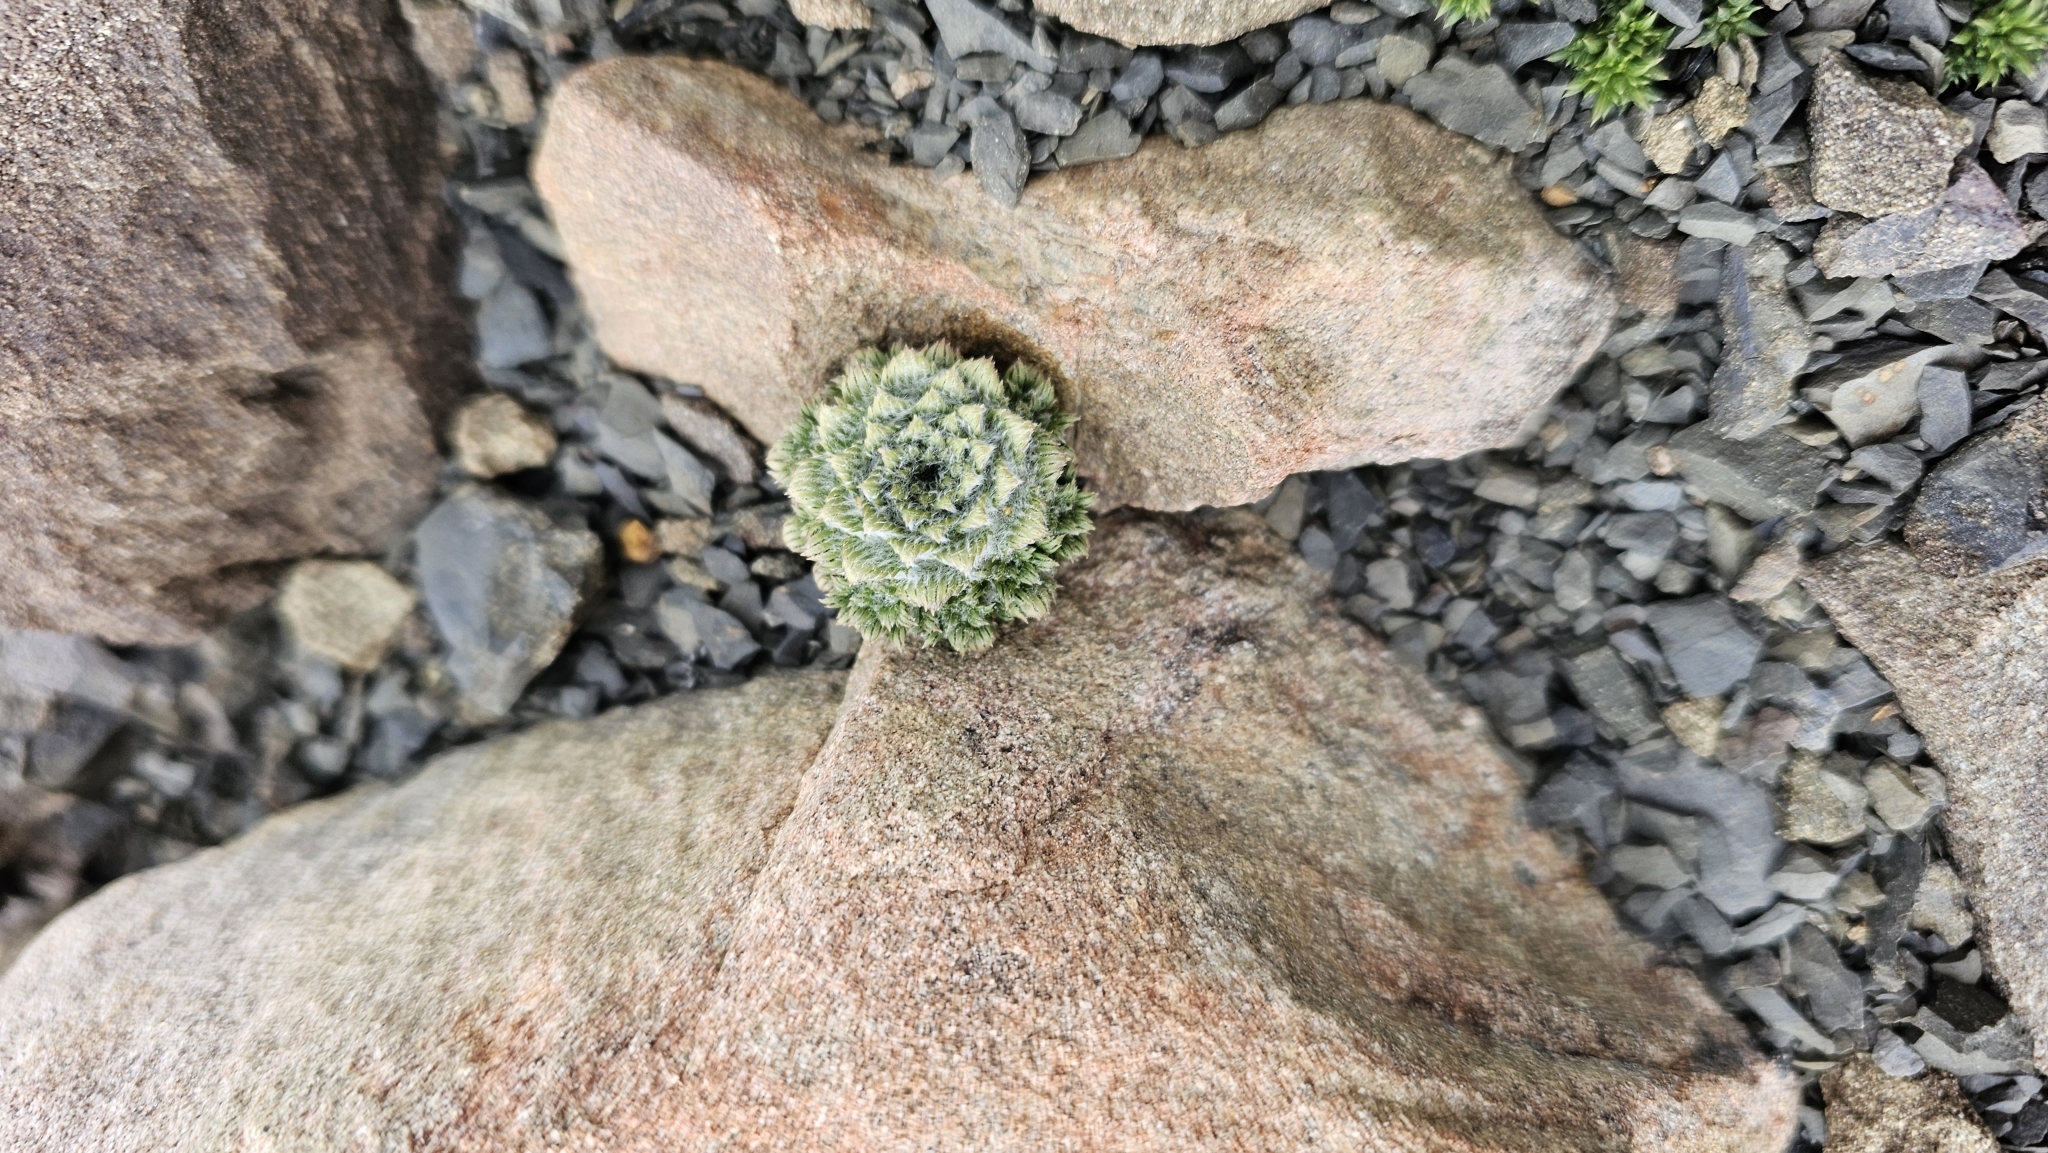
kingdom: Plantae
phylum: Tracheophyta
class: Magnoliopsida
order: Asterales
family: Asteraceae
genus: Nassauvia
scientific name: Nassauvia lagascae
